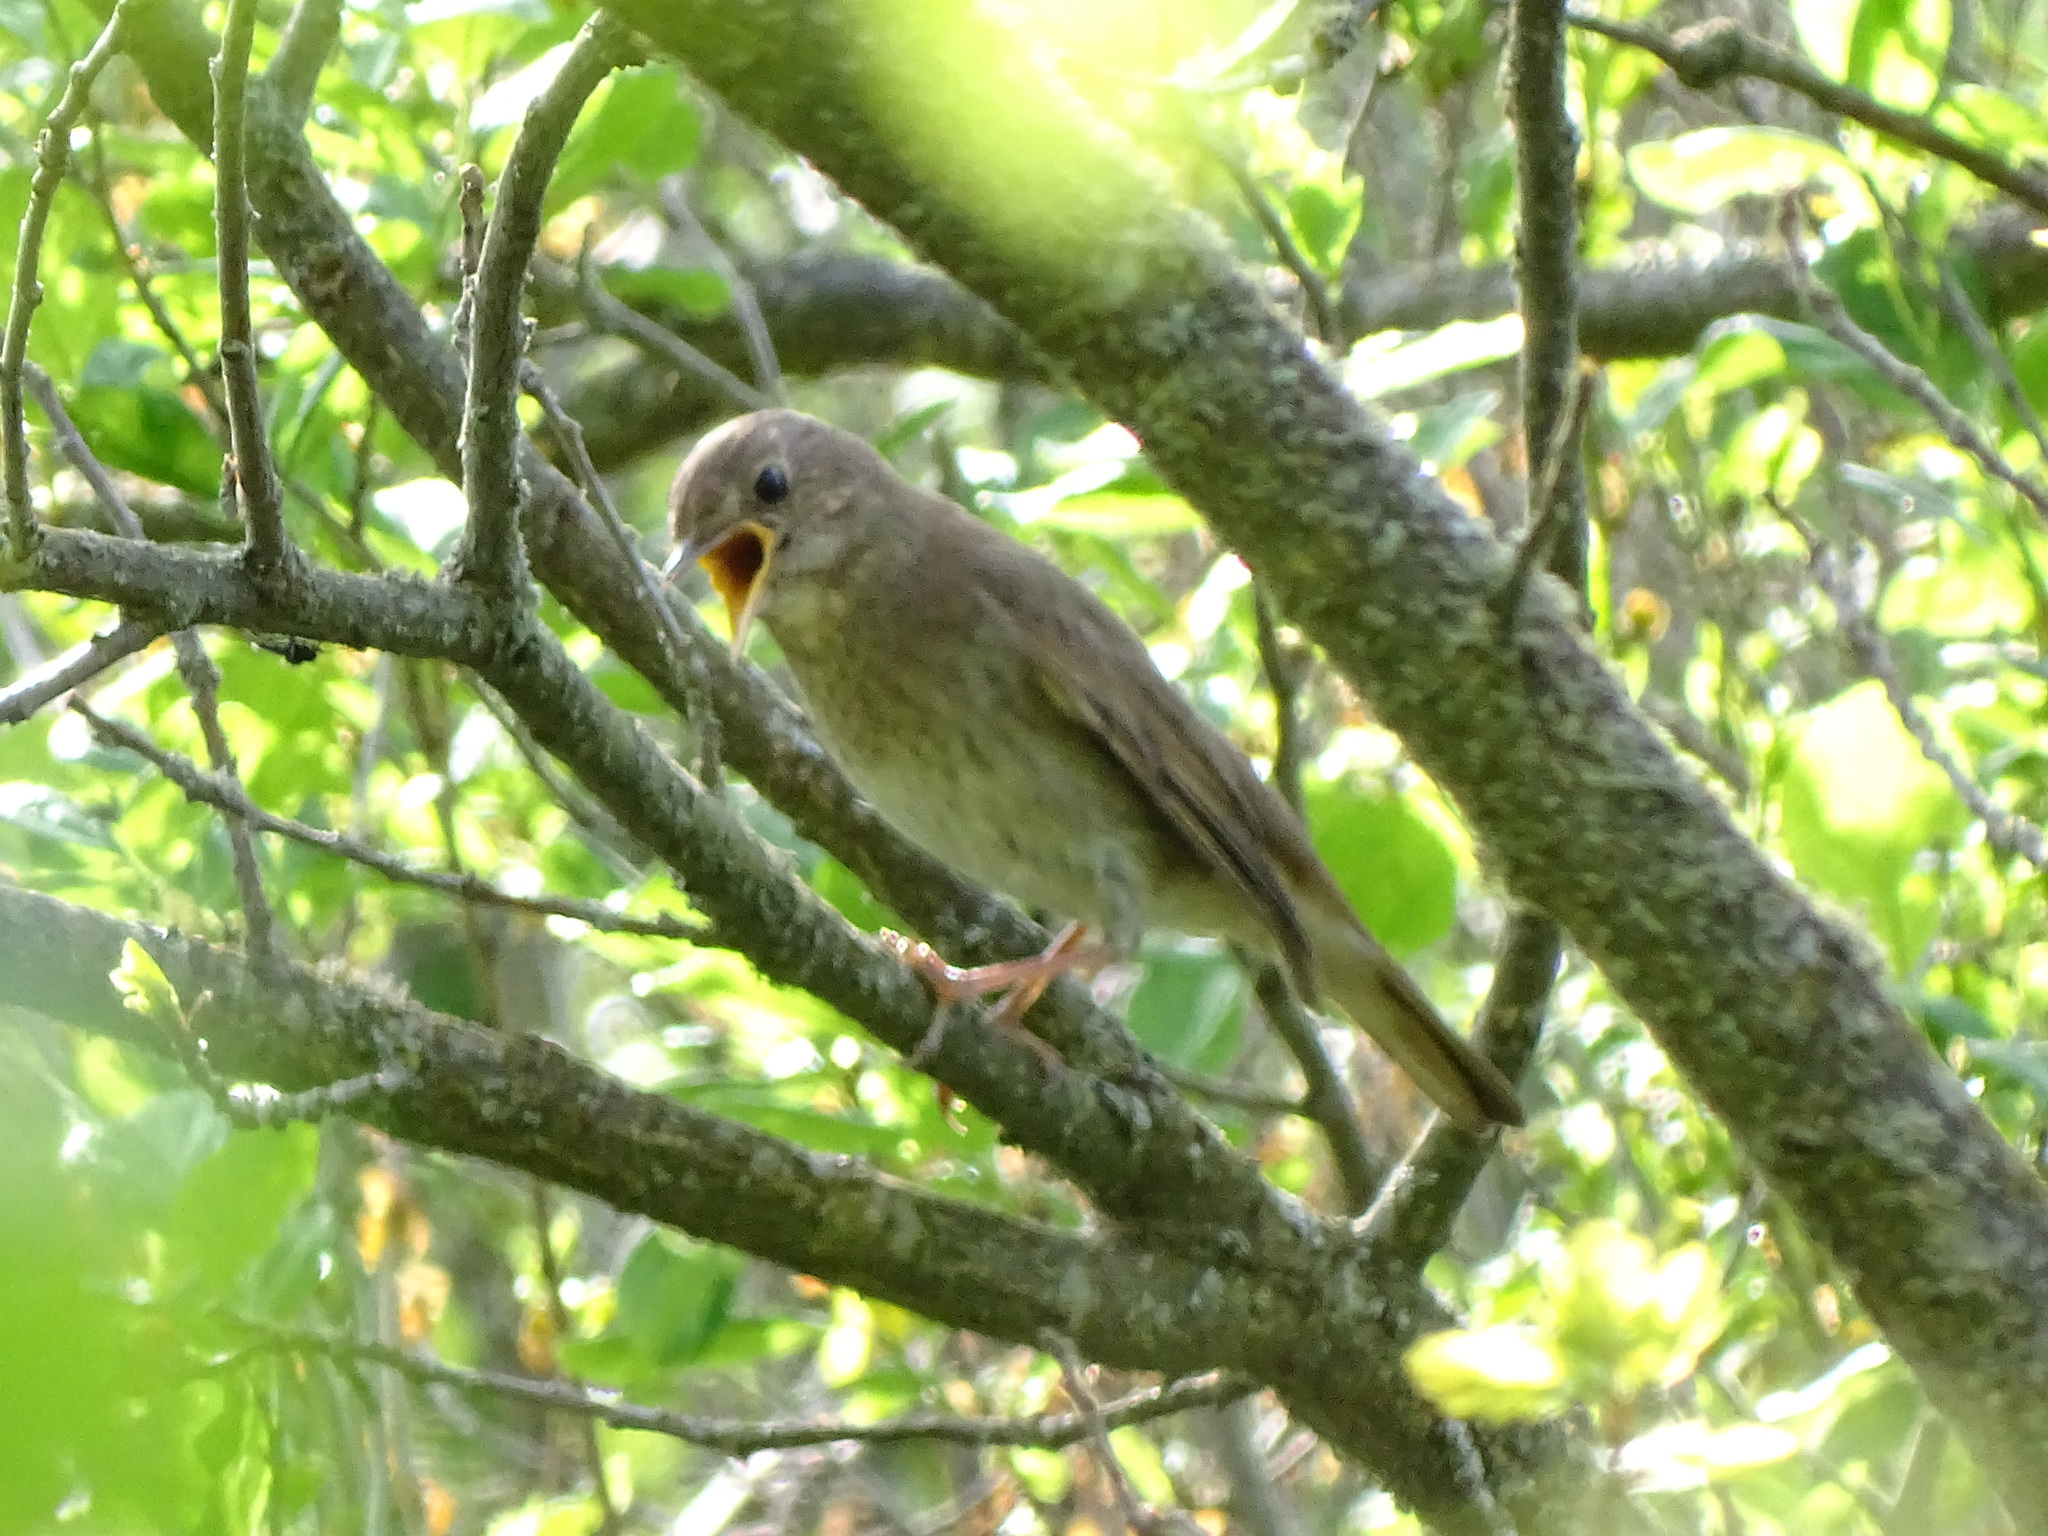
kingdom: Animalia
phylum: Chordata
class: Aves
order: Passeriformes
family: Muscicapidae
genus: Luscinia
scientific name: Luscinia luscinia
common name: Thrush nightingale
